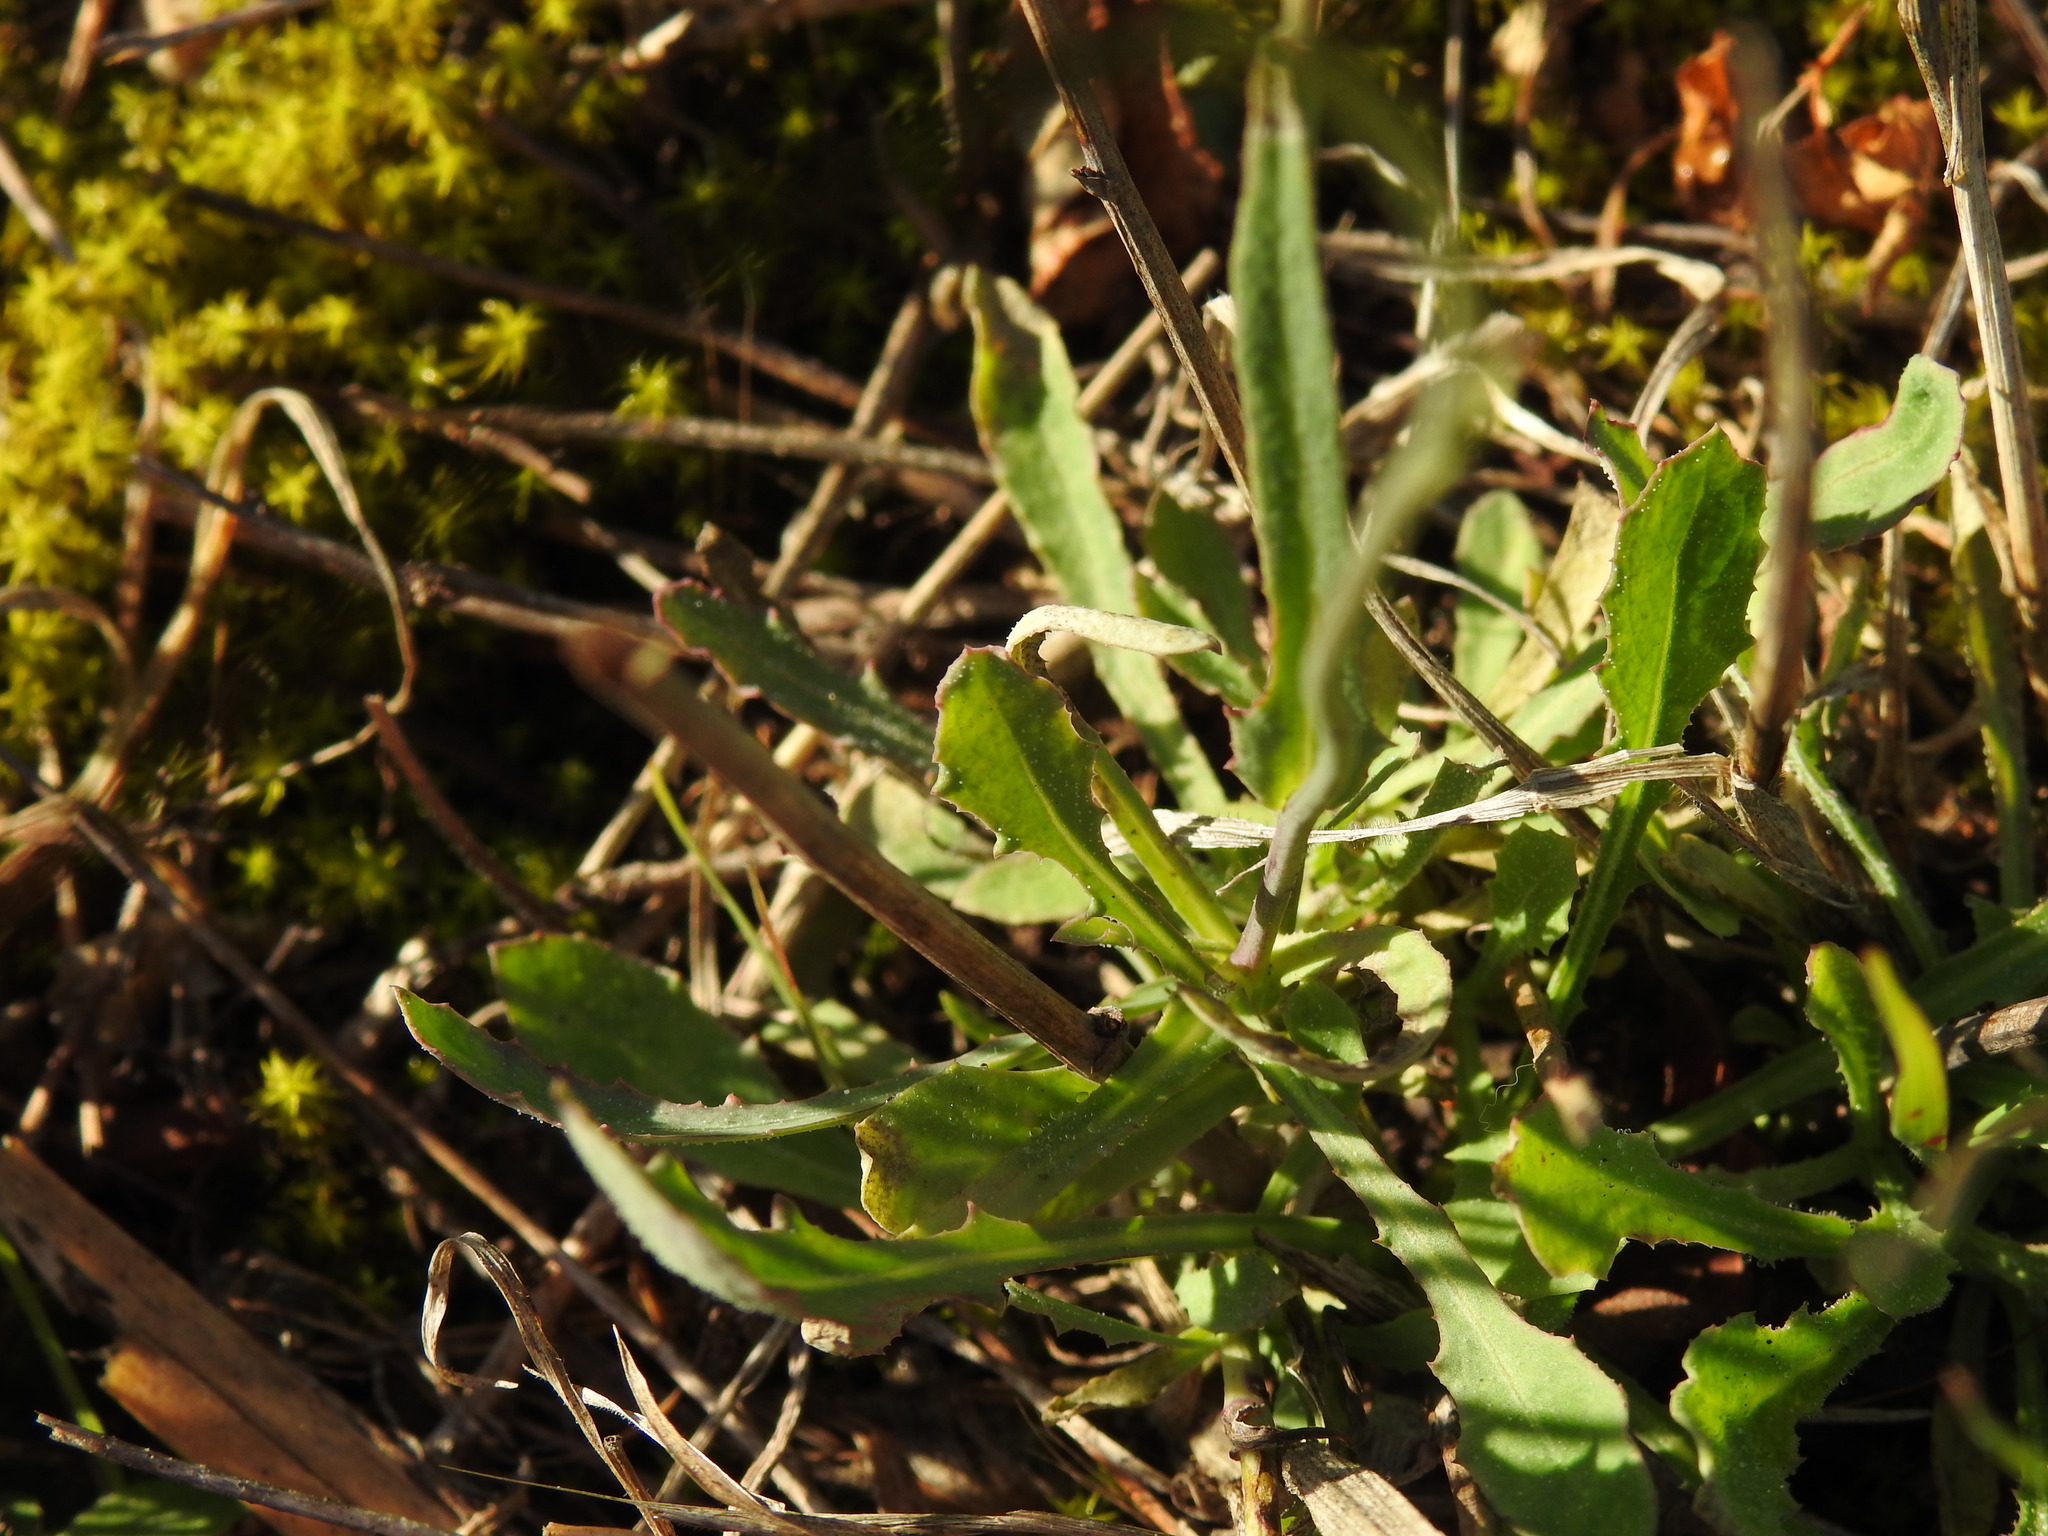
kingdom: Plantae
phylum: Tracheophyta
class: Magnoliopsida
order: Asterales
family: Asteraceae
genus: Reichardia
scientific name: Reichardia picroides
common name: Common brighteyes
